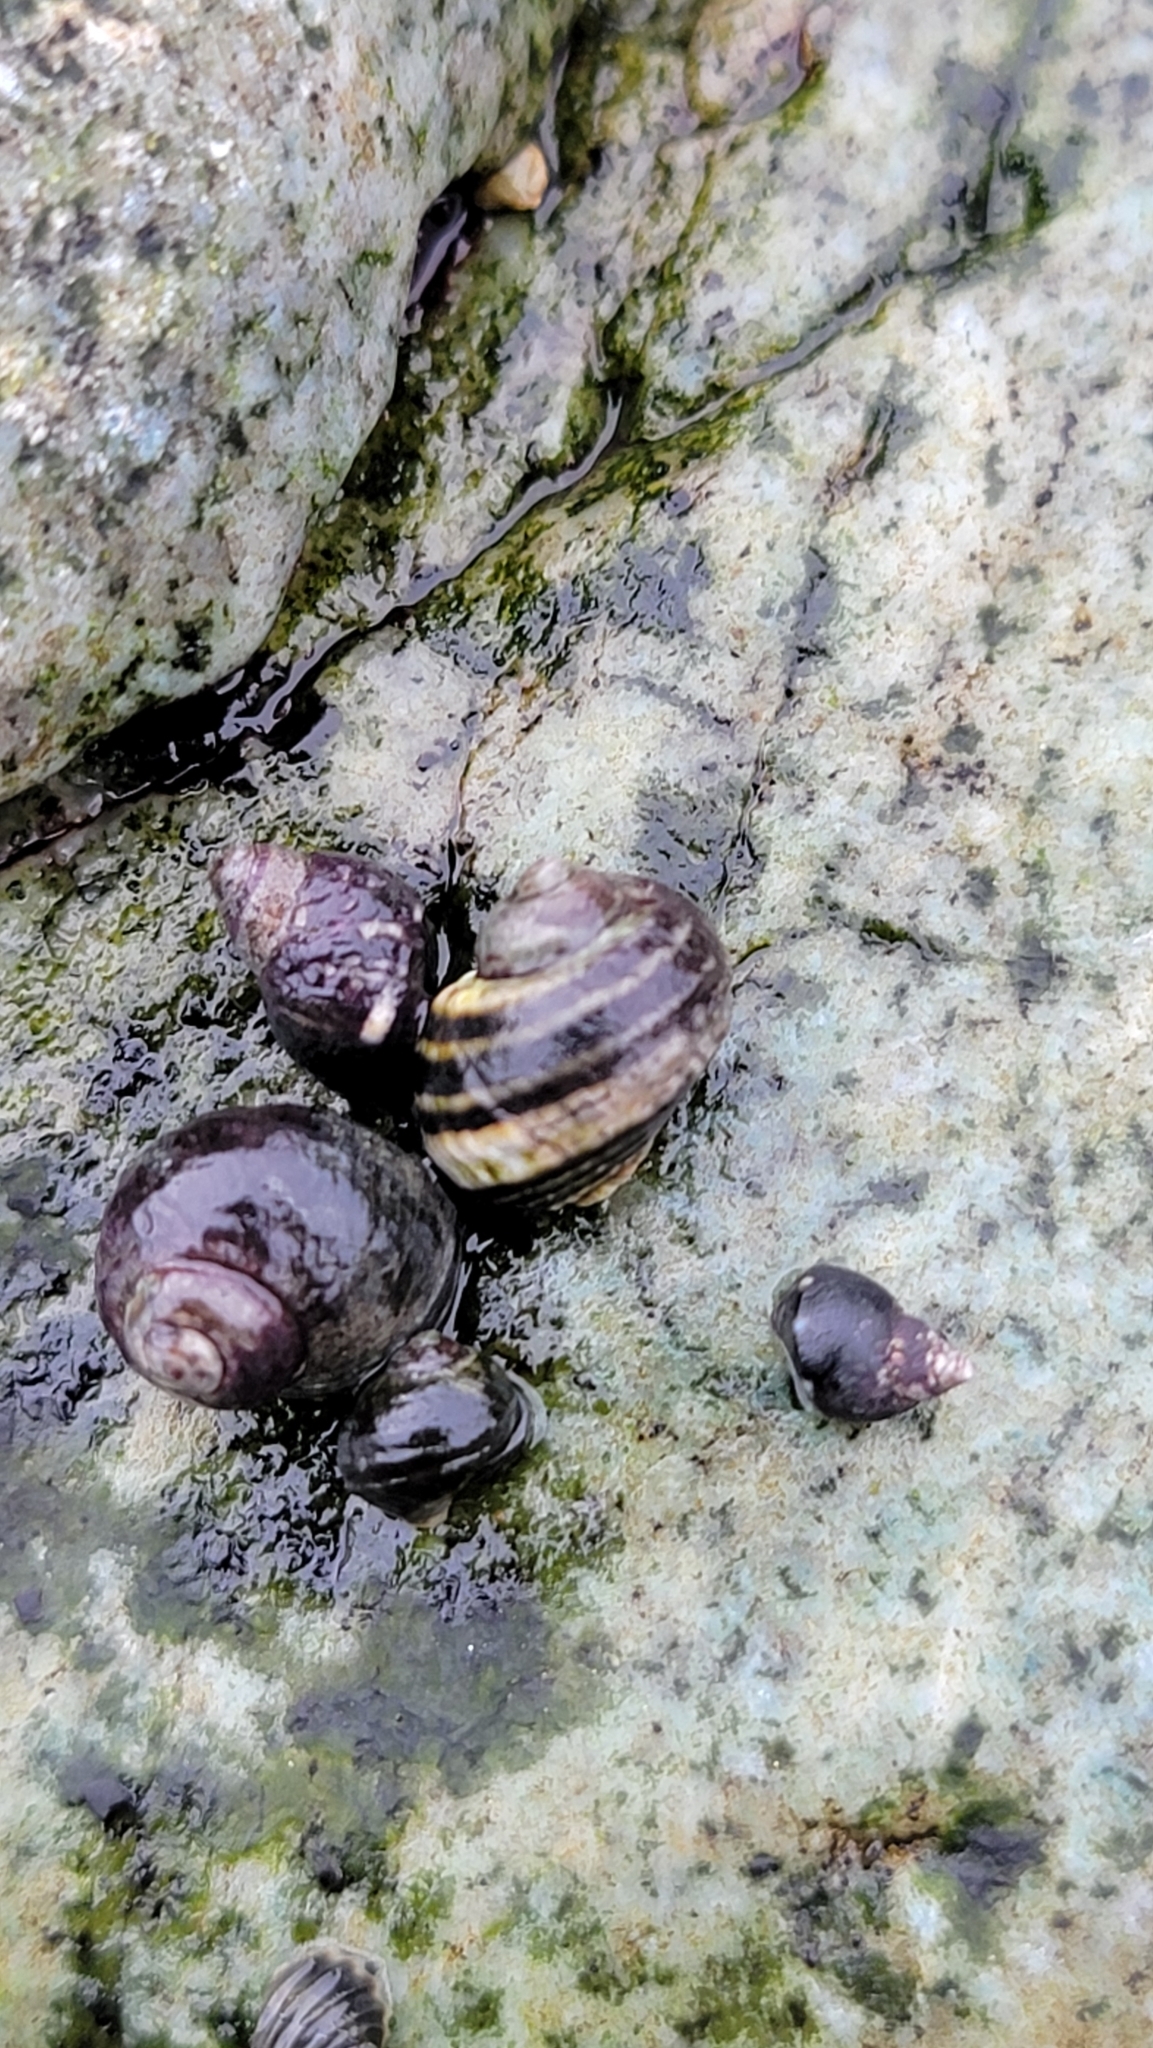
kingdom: Animalia
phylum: Mollusca
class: Gastropoda
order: Littorinimorpha
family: Littorinidae
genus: Littorina
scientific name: Littorina sitkana
